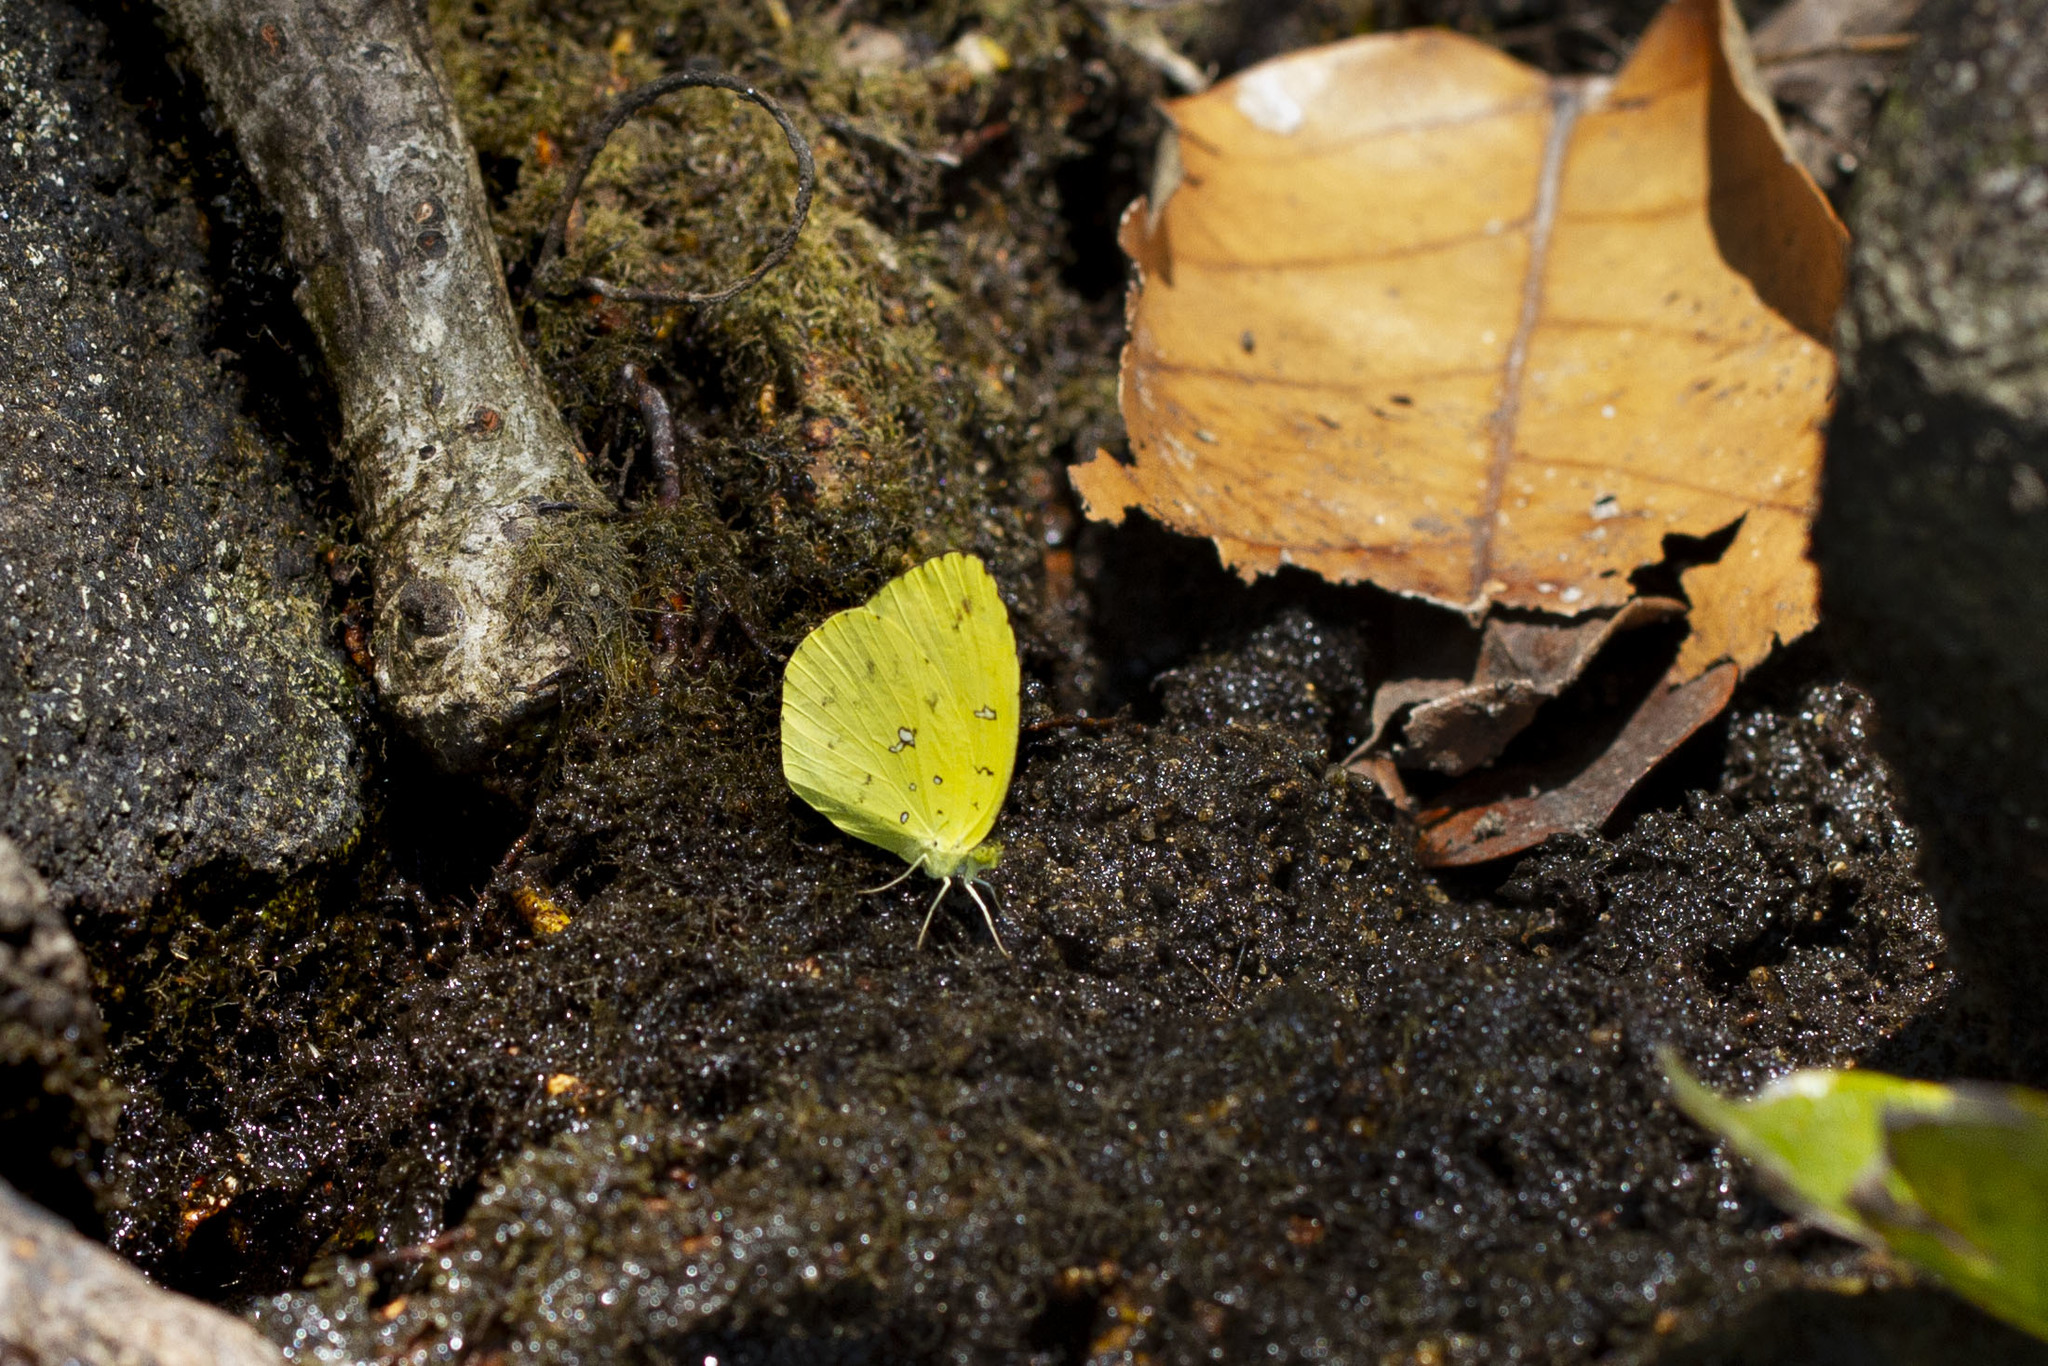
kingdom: Animalia
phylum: Arthropoda
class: Insecta
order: Lepidoptera
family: Pieridae
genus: Eurema
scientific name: Eurema floricola
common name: Malagasy grass yellow
